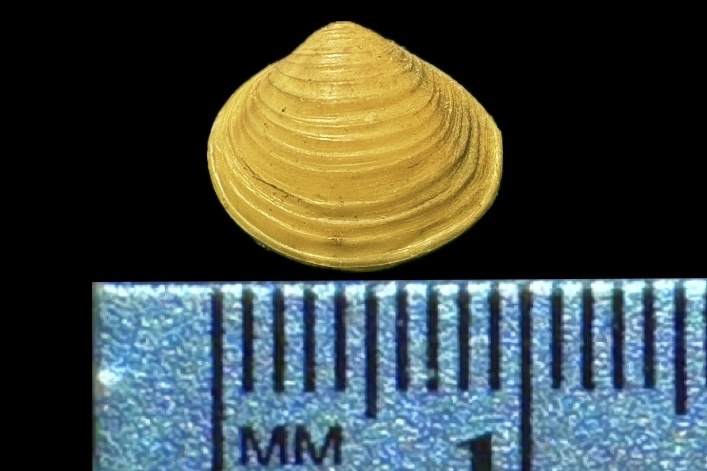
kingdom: Animalia
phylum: Mollusca
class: Bivalvia
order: Venerida
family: Cyrenidae
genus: Corbicula
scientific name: Corbicula fluminea
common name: Asian clam
